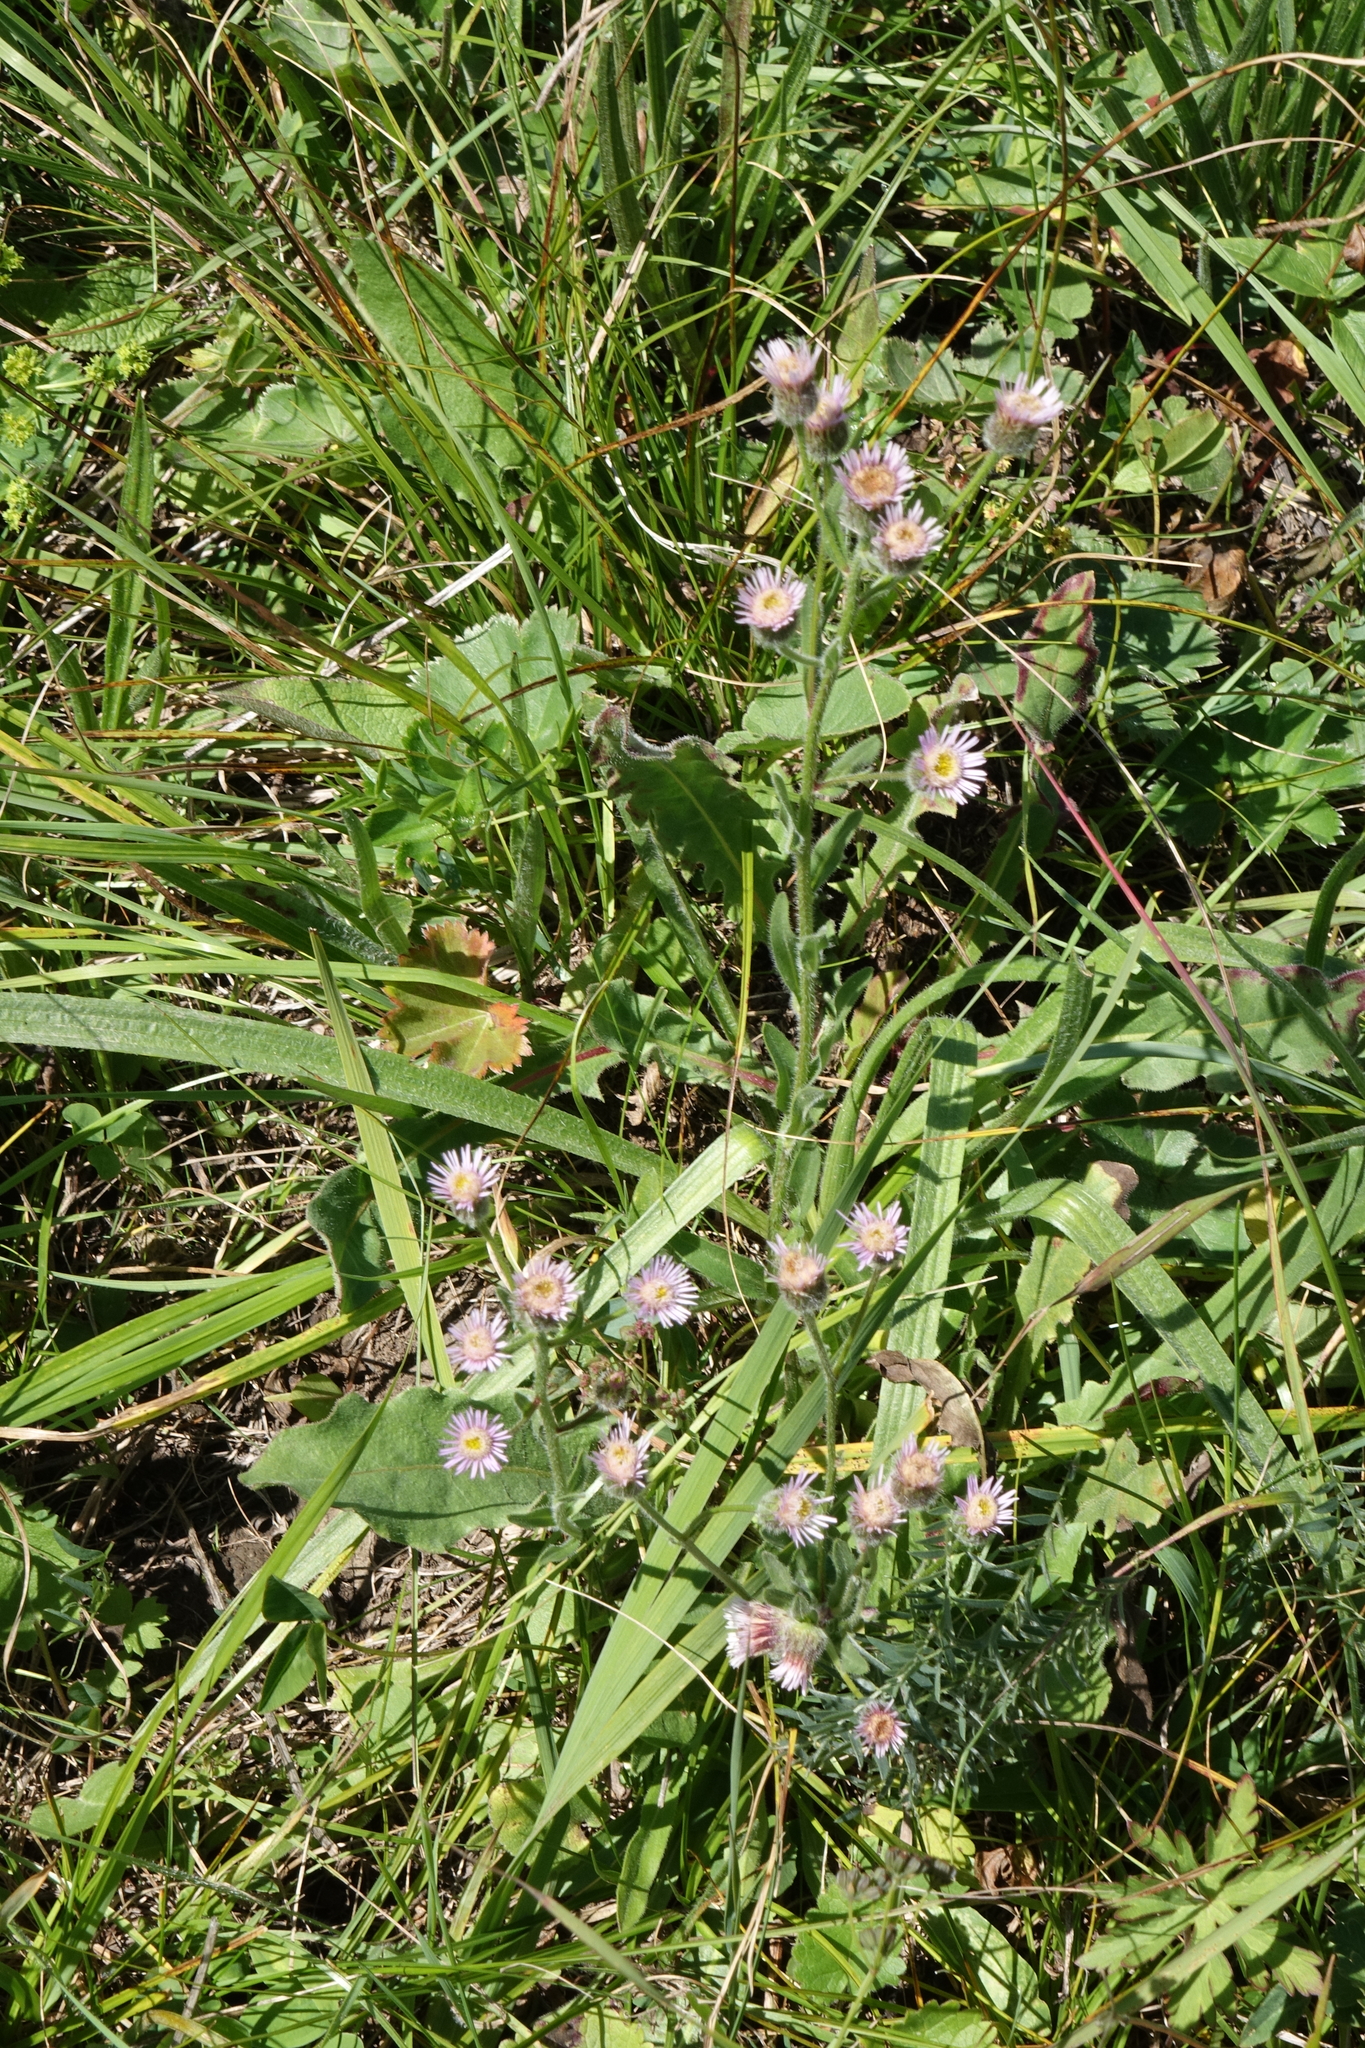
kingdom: Plantae
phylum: Tracheophyta
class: Magnoliopsida
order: Asterales
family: Asteraceae
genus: Erigeron
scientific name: Erigeron acris
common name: Blue fleabane
